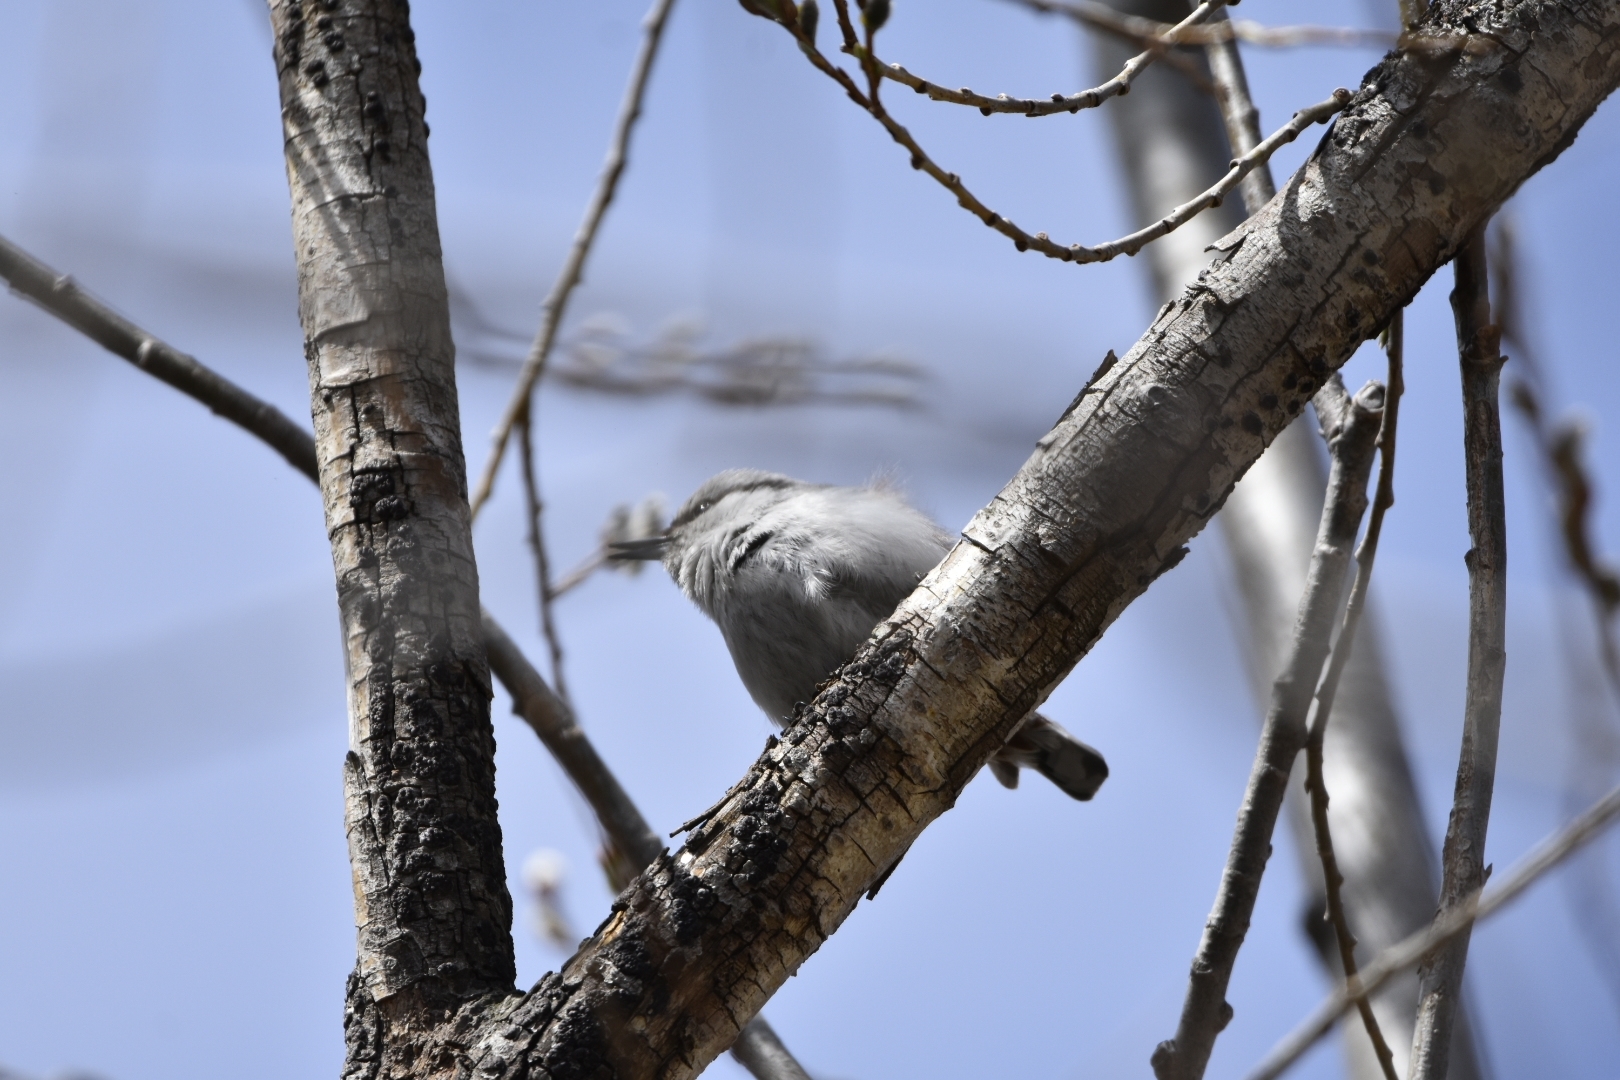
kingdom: Animalia
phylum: Chordata
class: Aves
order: Passeriformes
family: Sittidae
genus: Sitta
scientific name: Sitta europaea
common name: Eurasian nuthatch
